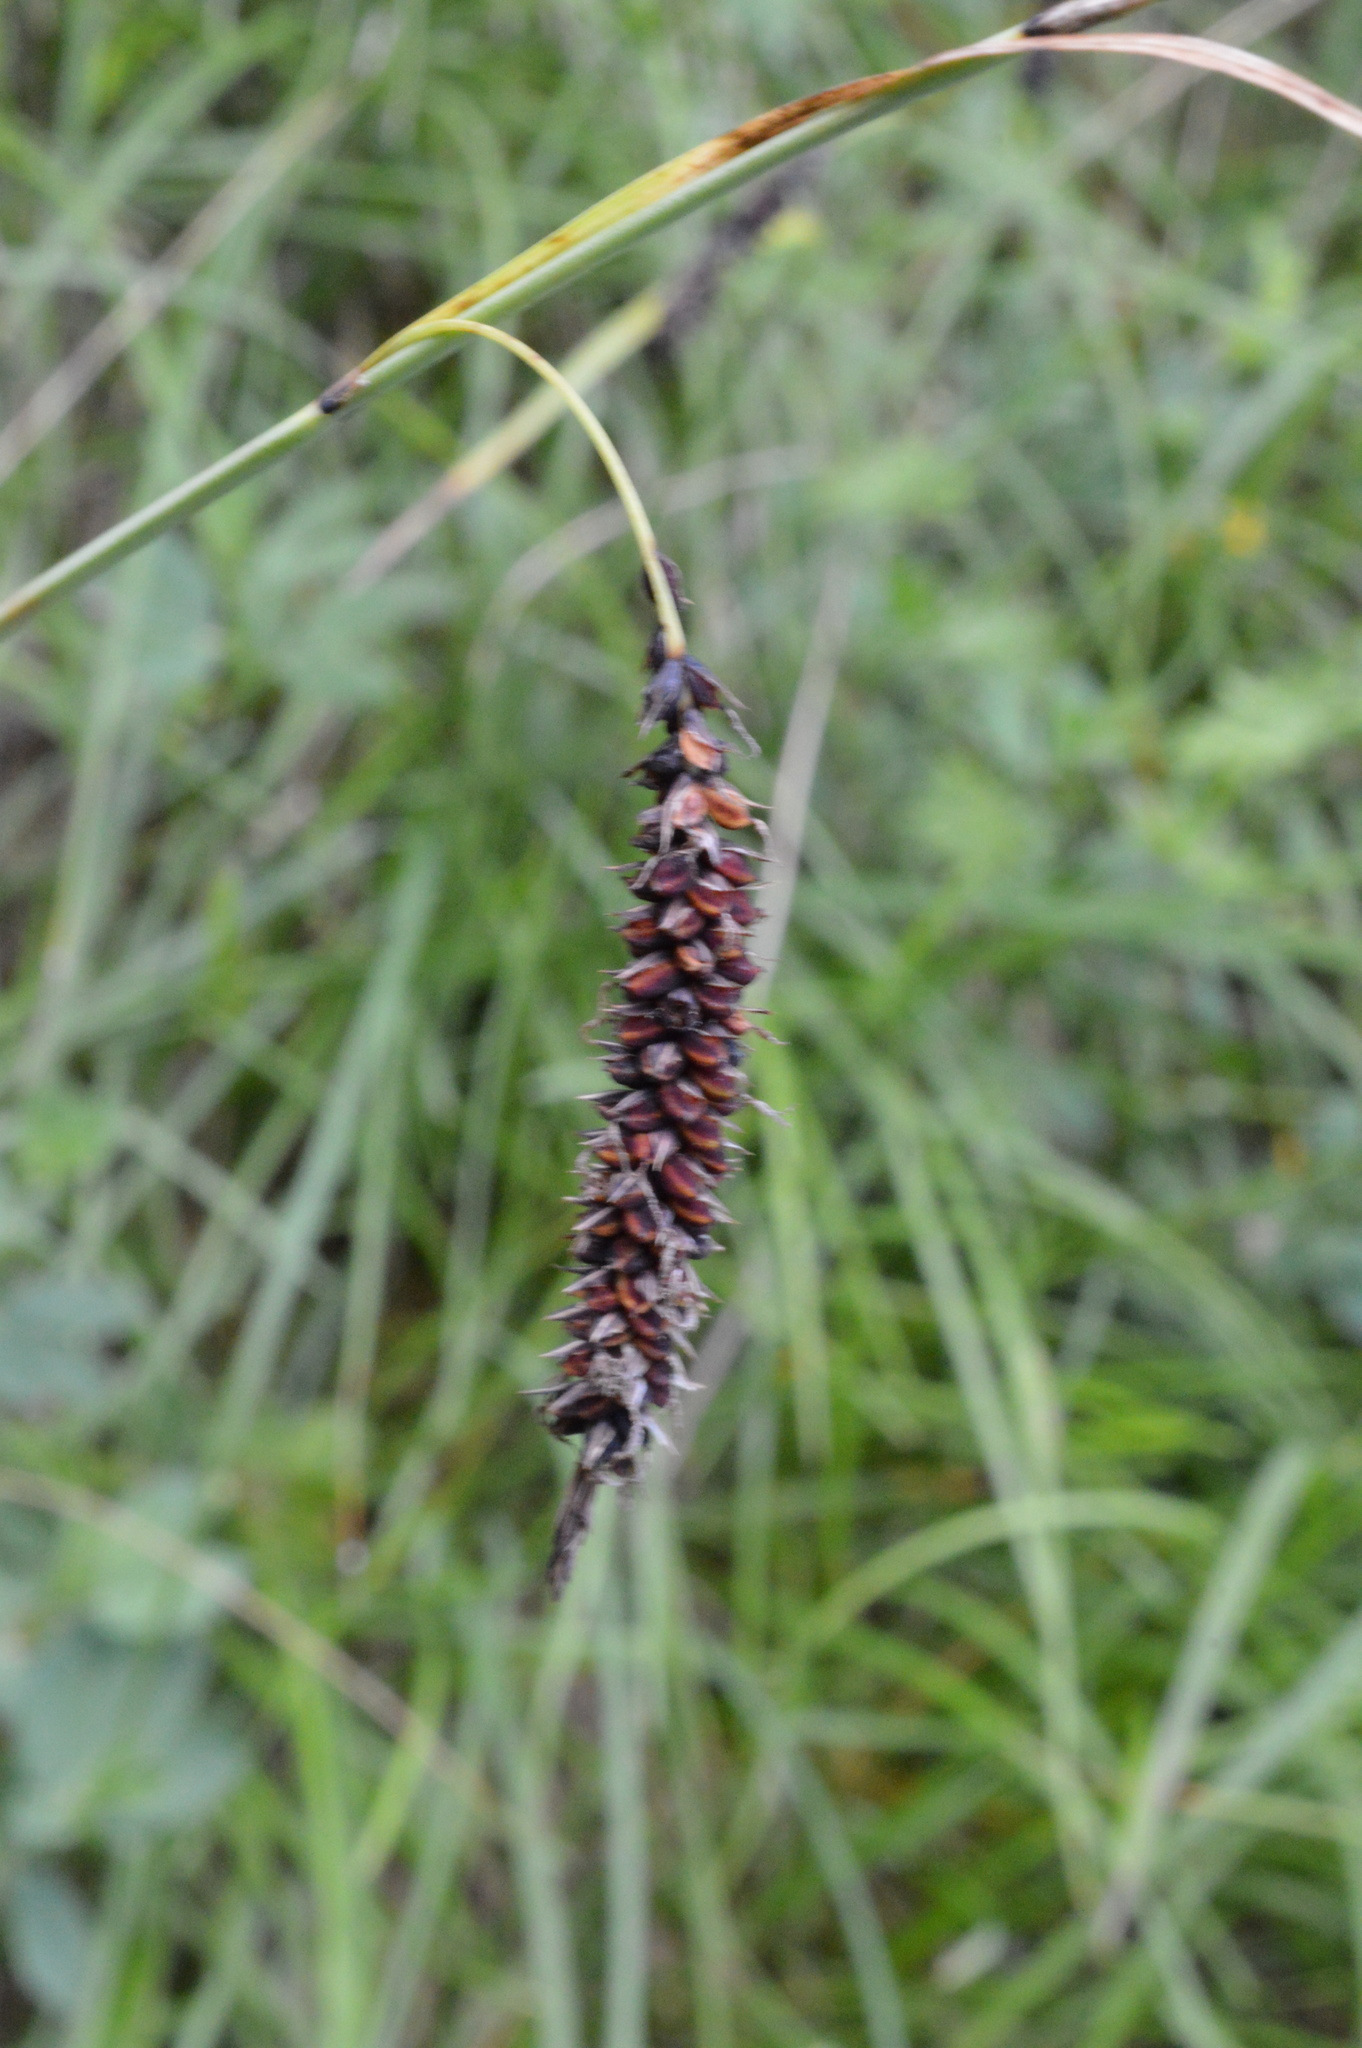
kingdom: Plantae
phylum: Tracheophyta
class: Liliopsida
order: Poales
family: Cyperaceae
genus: Carex
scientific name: Carex flacca
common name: Glaucous sedge
